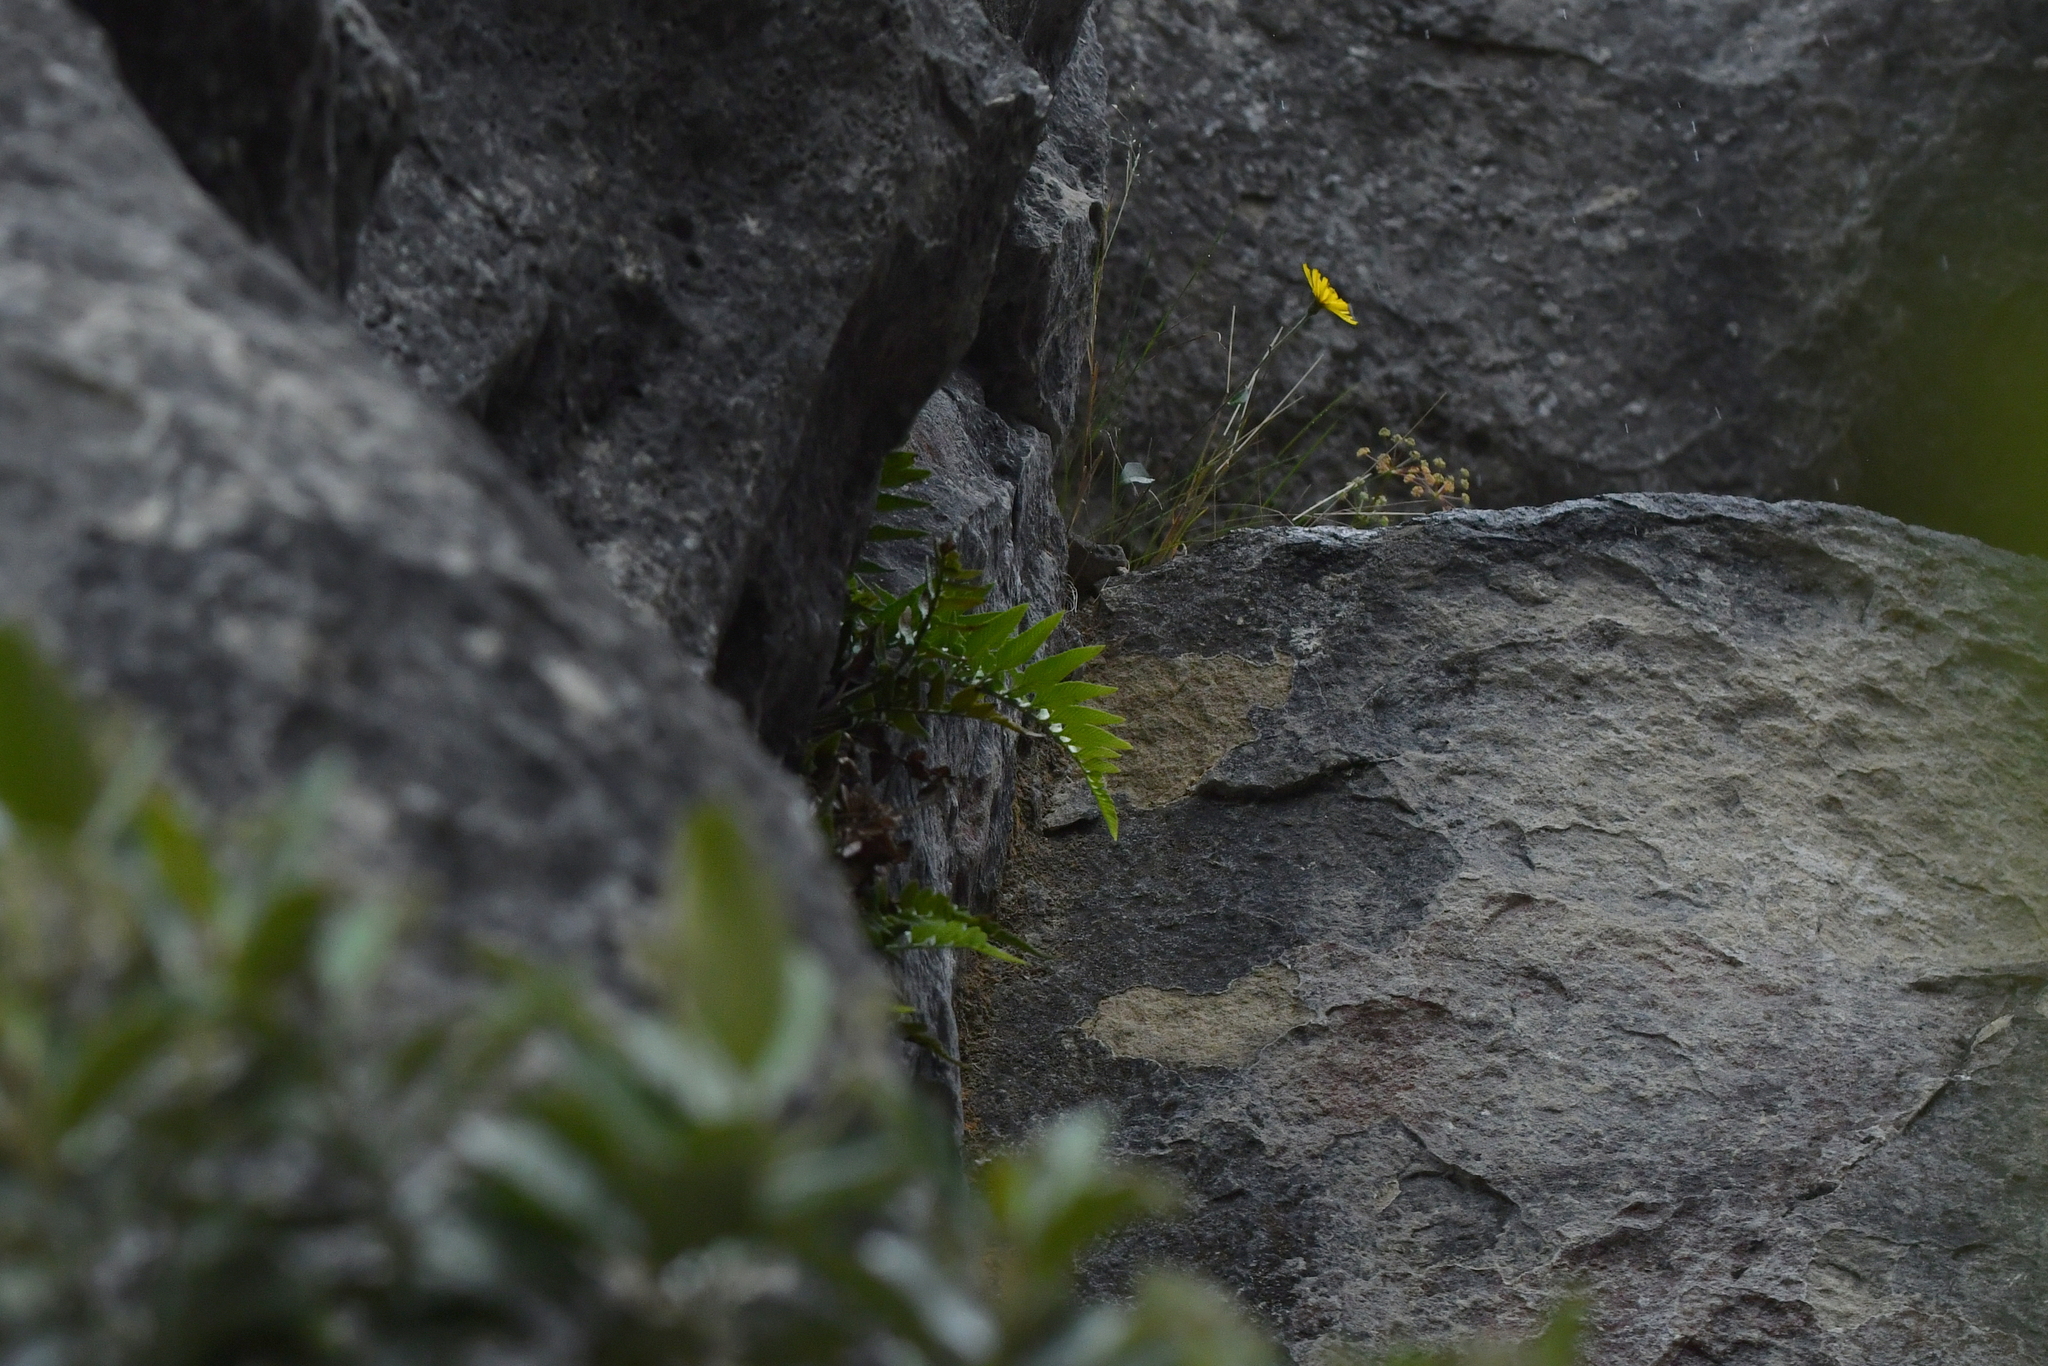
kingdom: Plantae
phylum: Tracheophyta
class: Polypodiopsida
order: Polypodiales
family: Aspleniaceae
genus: Asplenium
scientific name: Asplenium lyallii
